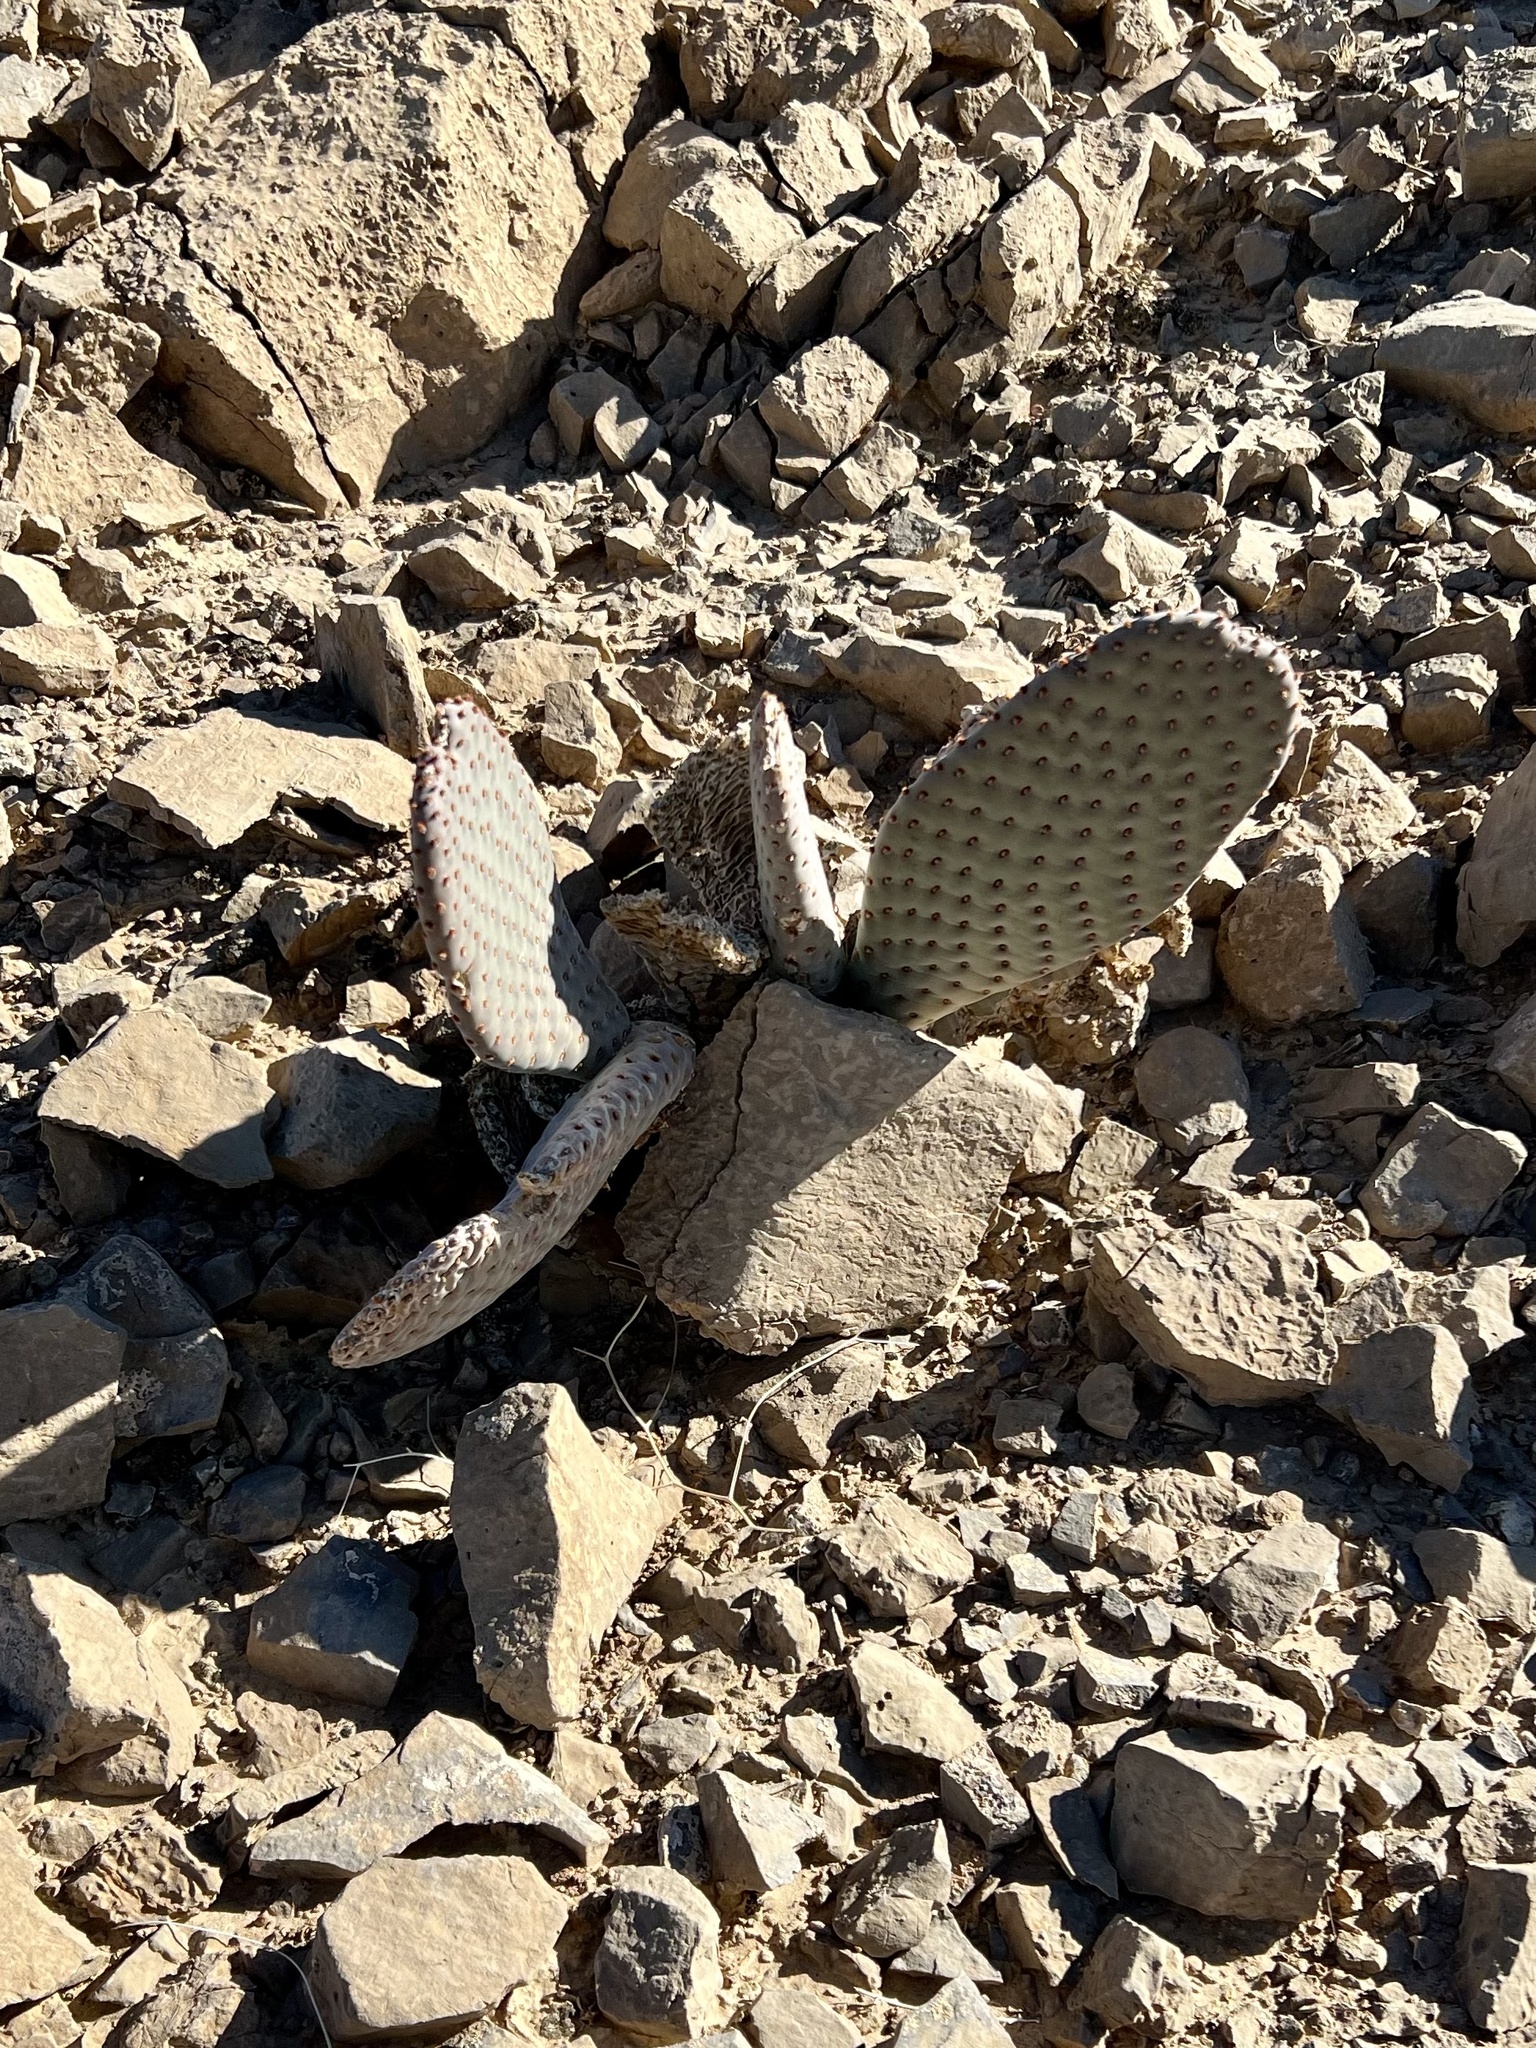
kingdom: Plantae
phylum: Tracheophyta
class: Magnoliopsida
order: Caryophyllales
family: Cactaceae
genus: Opuntia
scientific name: Opuntia basilaris
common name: Beavertail prickly-pear
